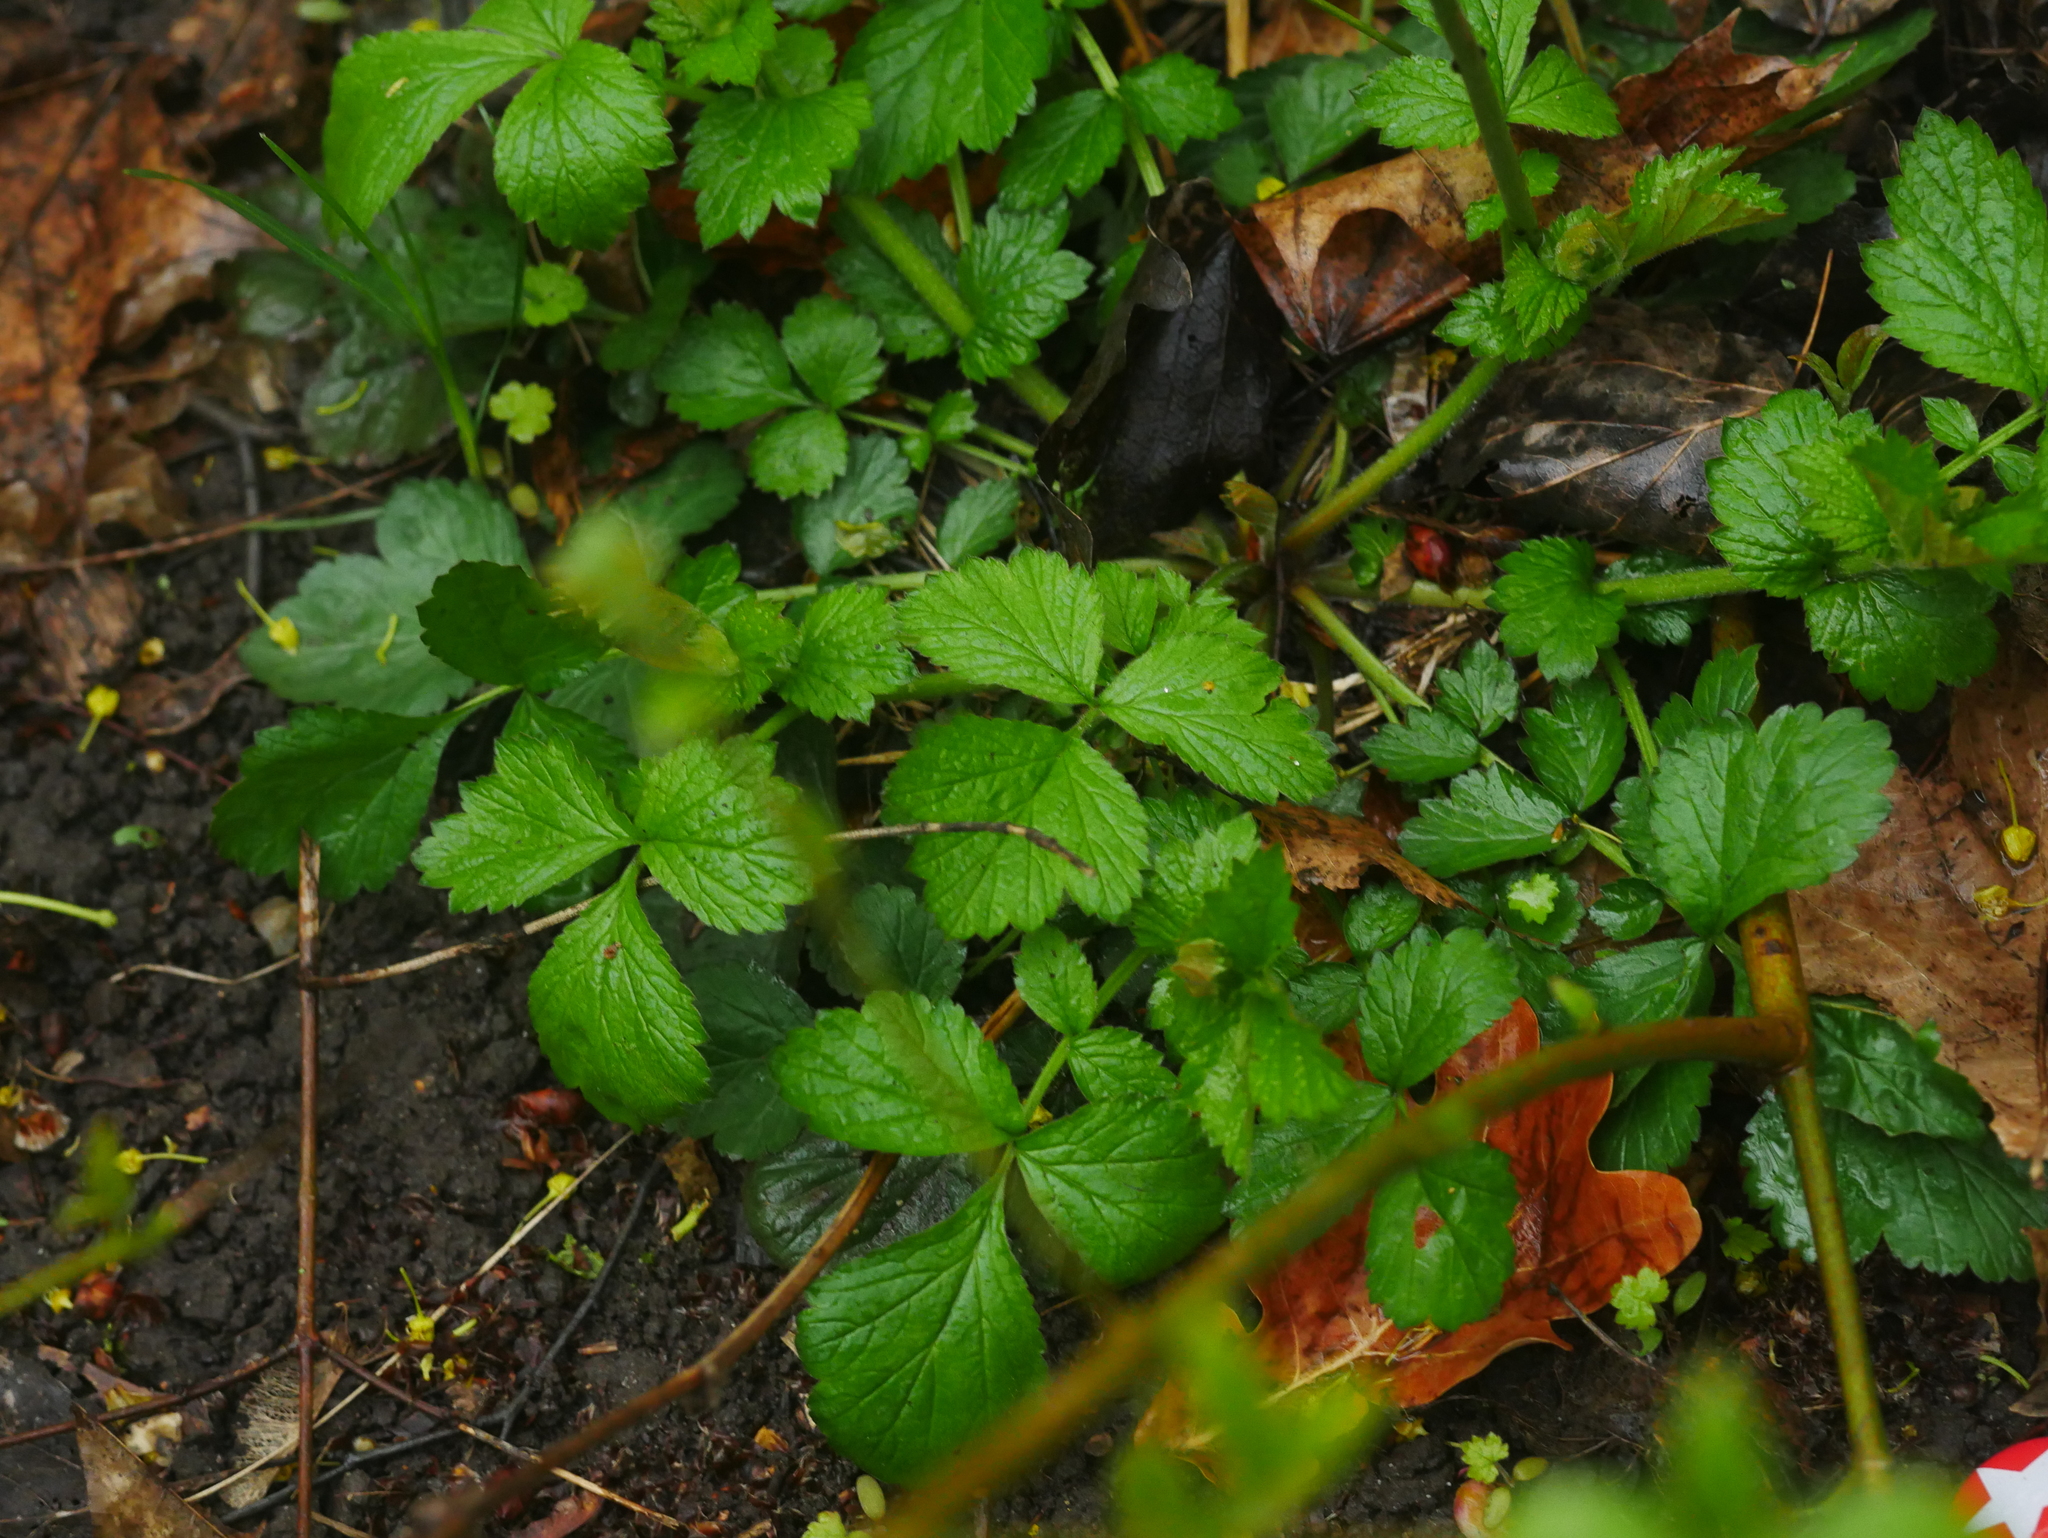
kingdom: Plantae
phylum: Tracheophyta
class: Magnoliopsida
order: Rosales
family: Rosaceae
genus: Geum
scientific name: Geum urbanum
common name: Wood avens
